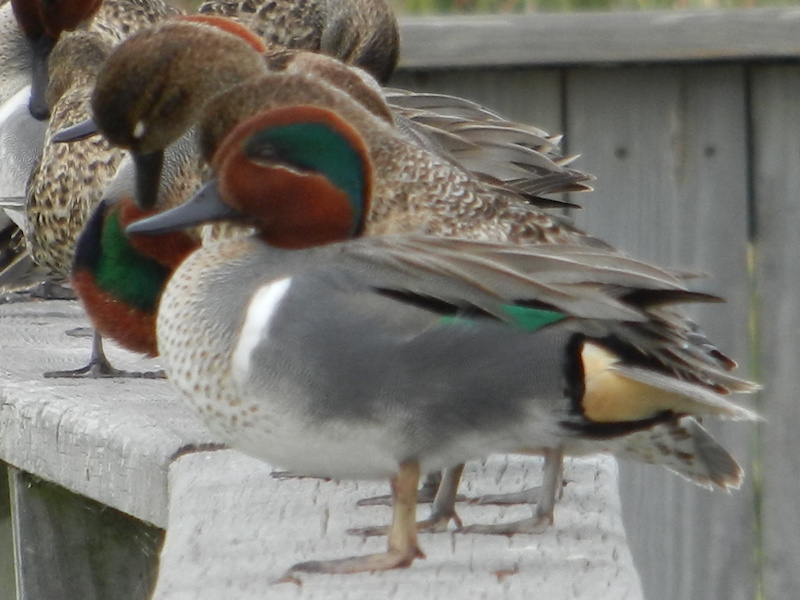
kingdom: Animalia
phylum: Chordata
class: Aves
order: Anseriformes
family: Anatidae
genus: Anas
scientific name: Anas carolinensis
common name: Green-winged teal
